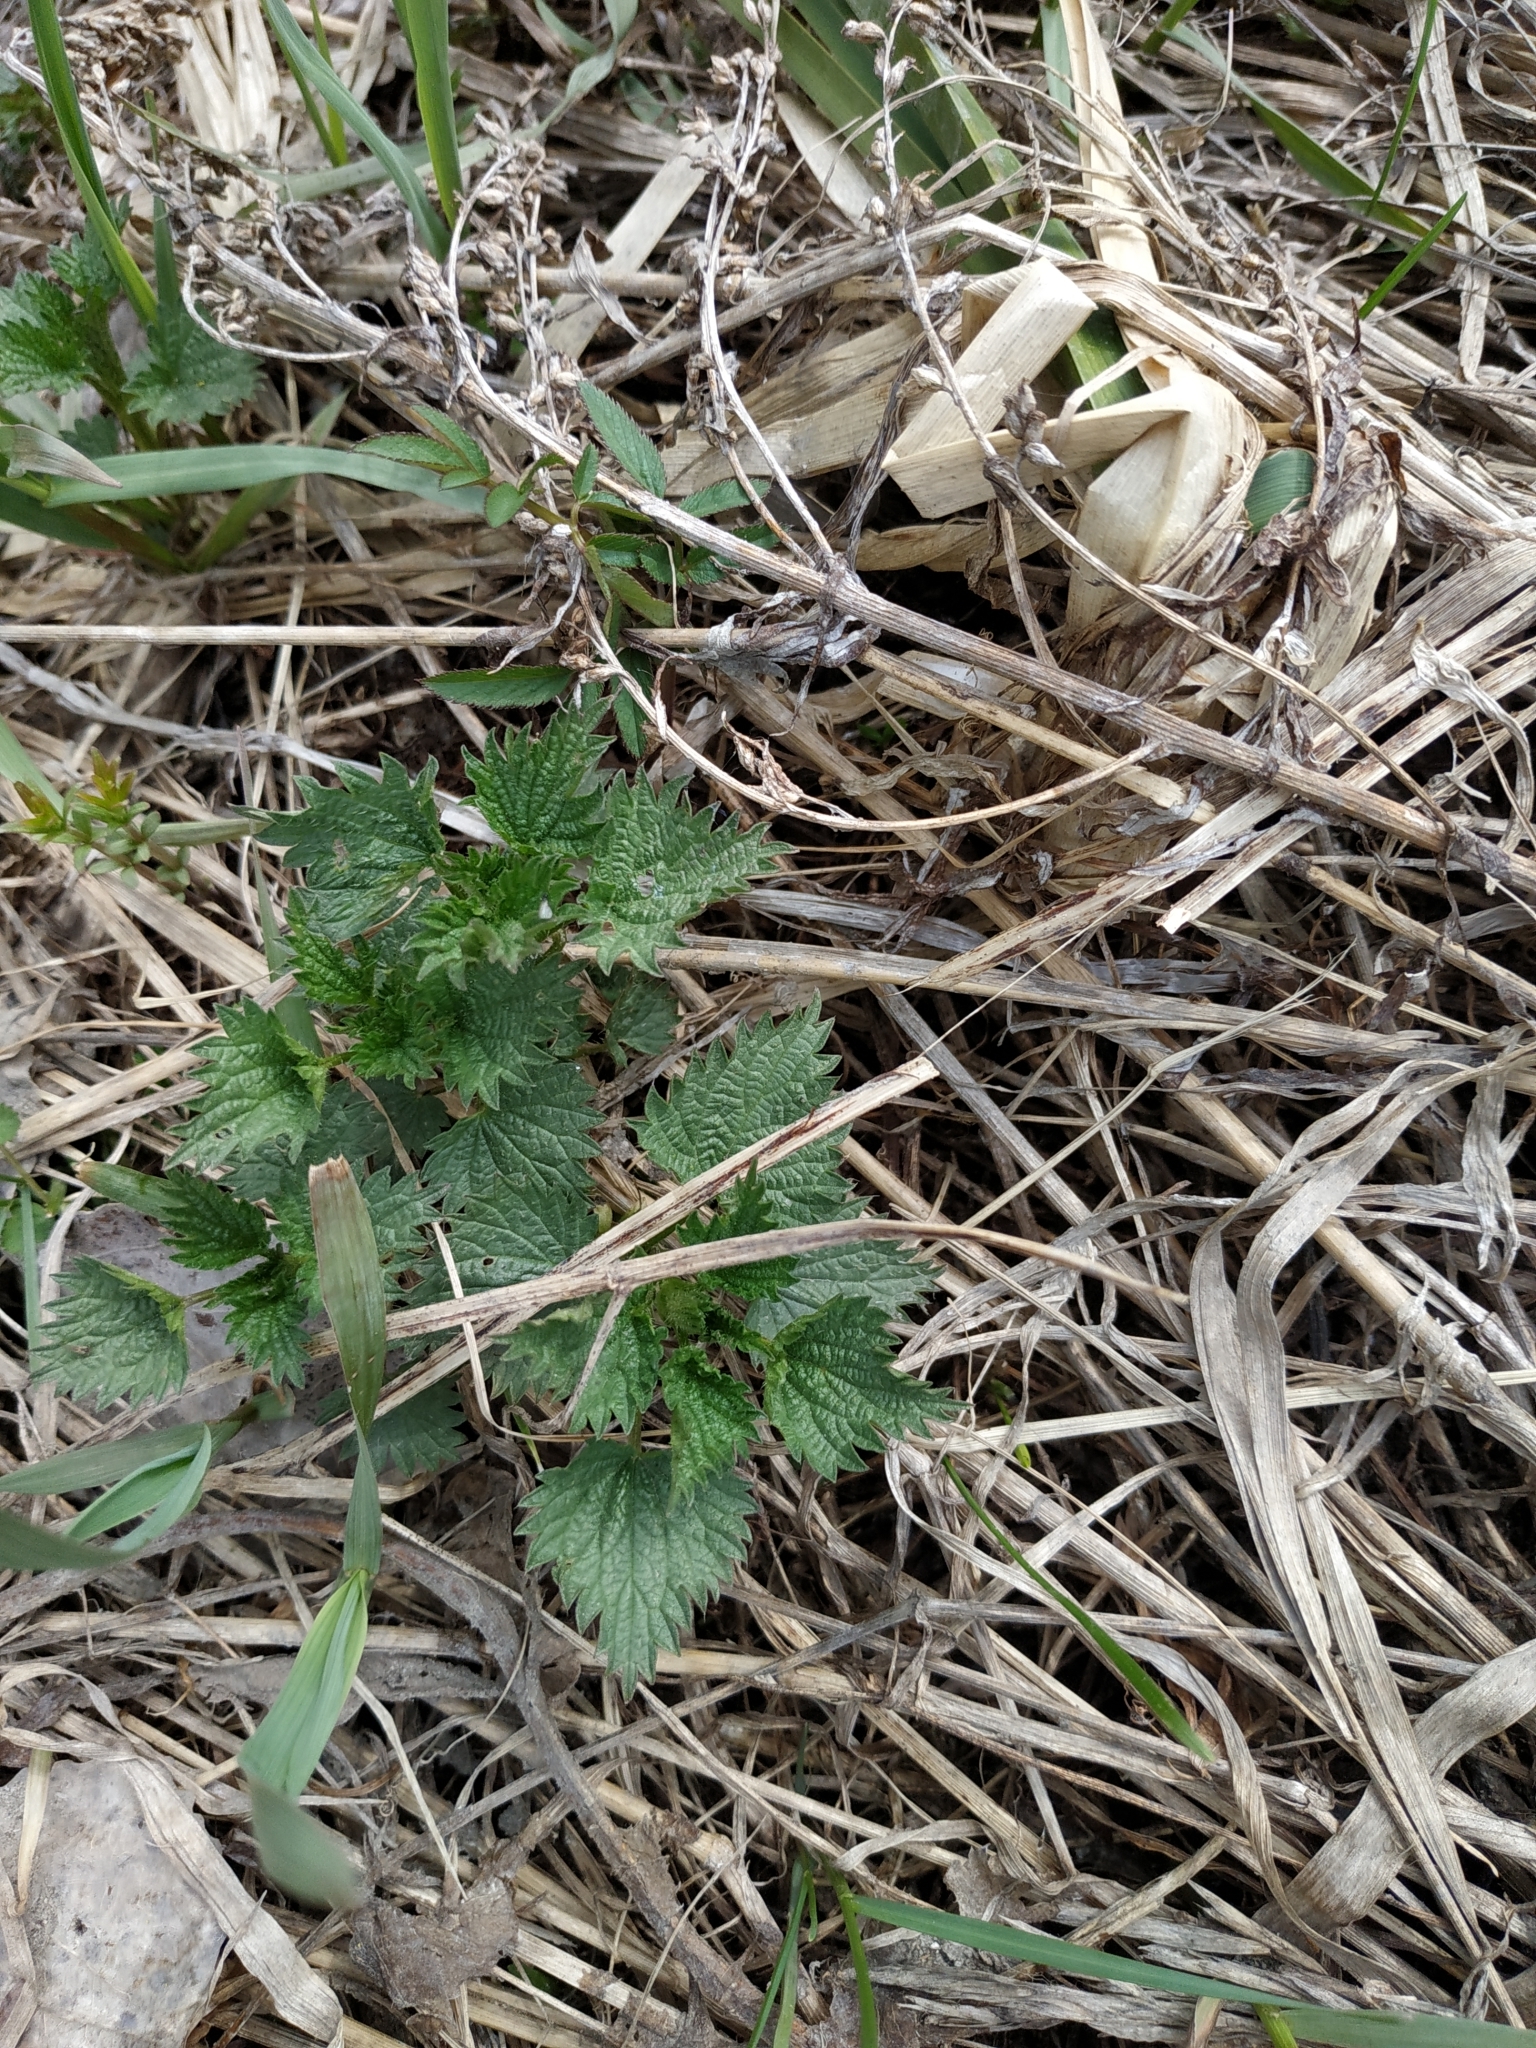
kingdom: Plantae
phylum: Tracheophyta
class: Magnoliopsida
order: Rosales
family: Urticaceae
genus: Urtica
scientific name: Urtica dioica
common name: Common nettle
